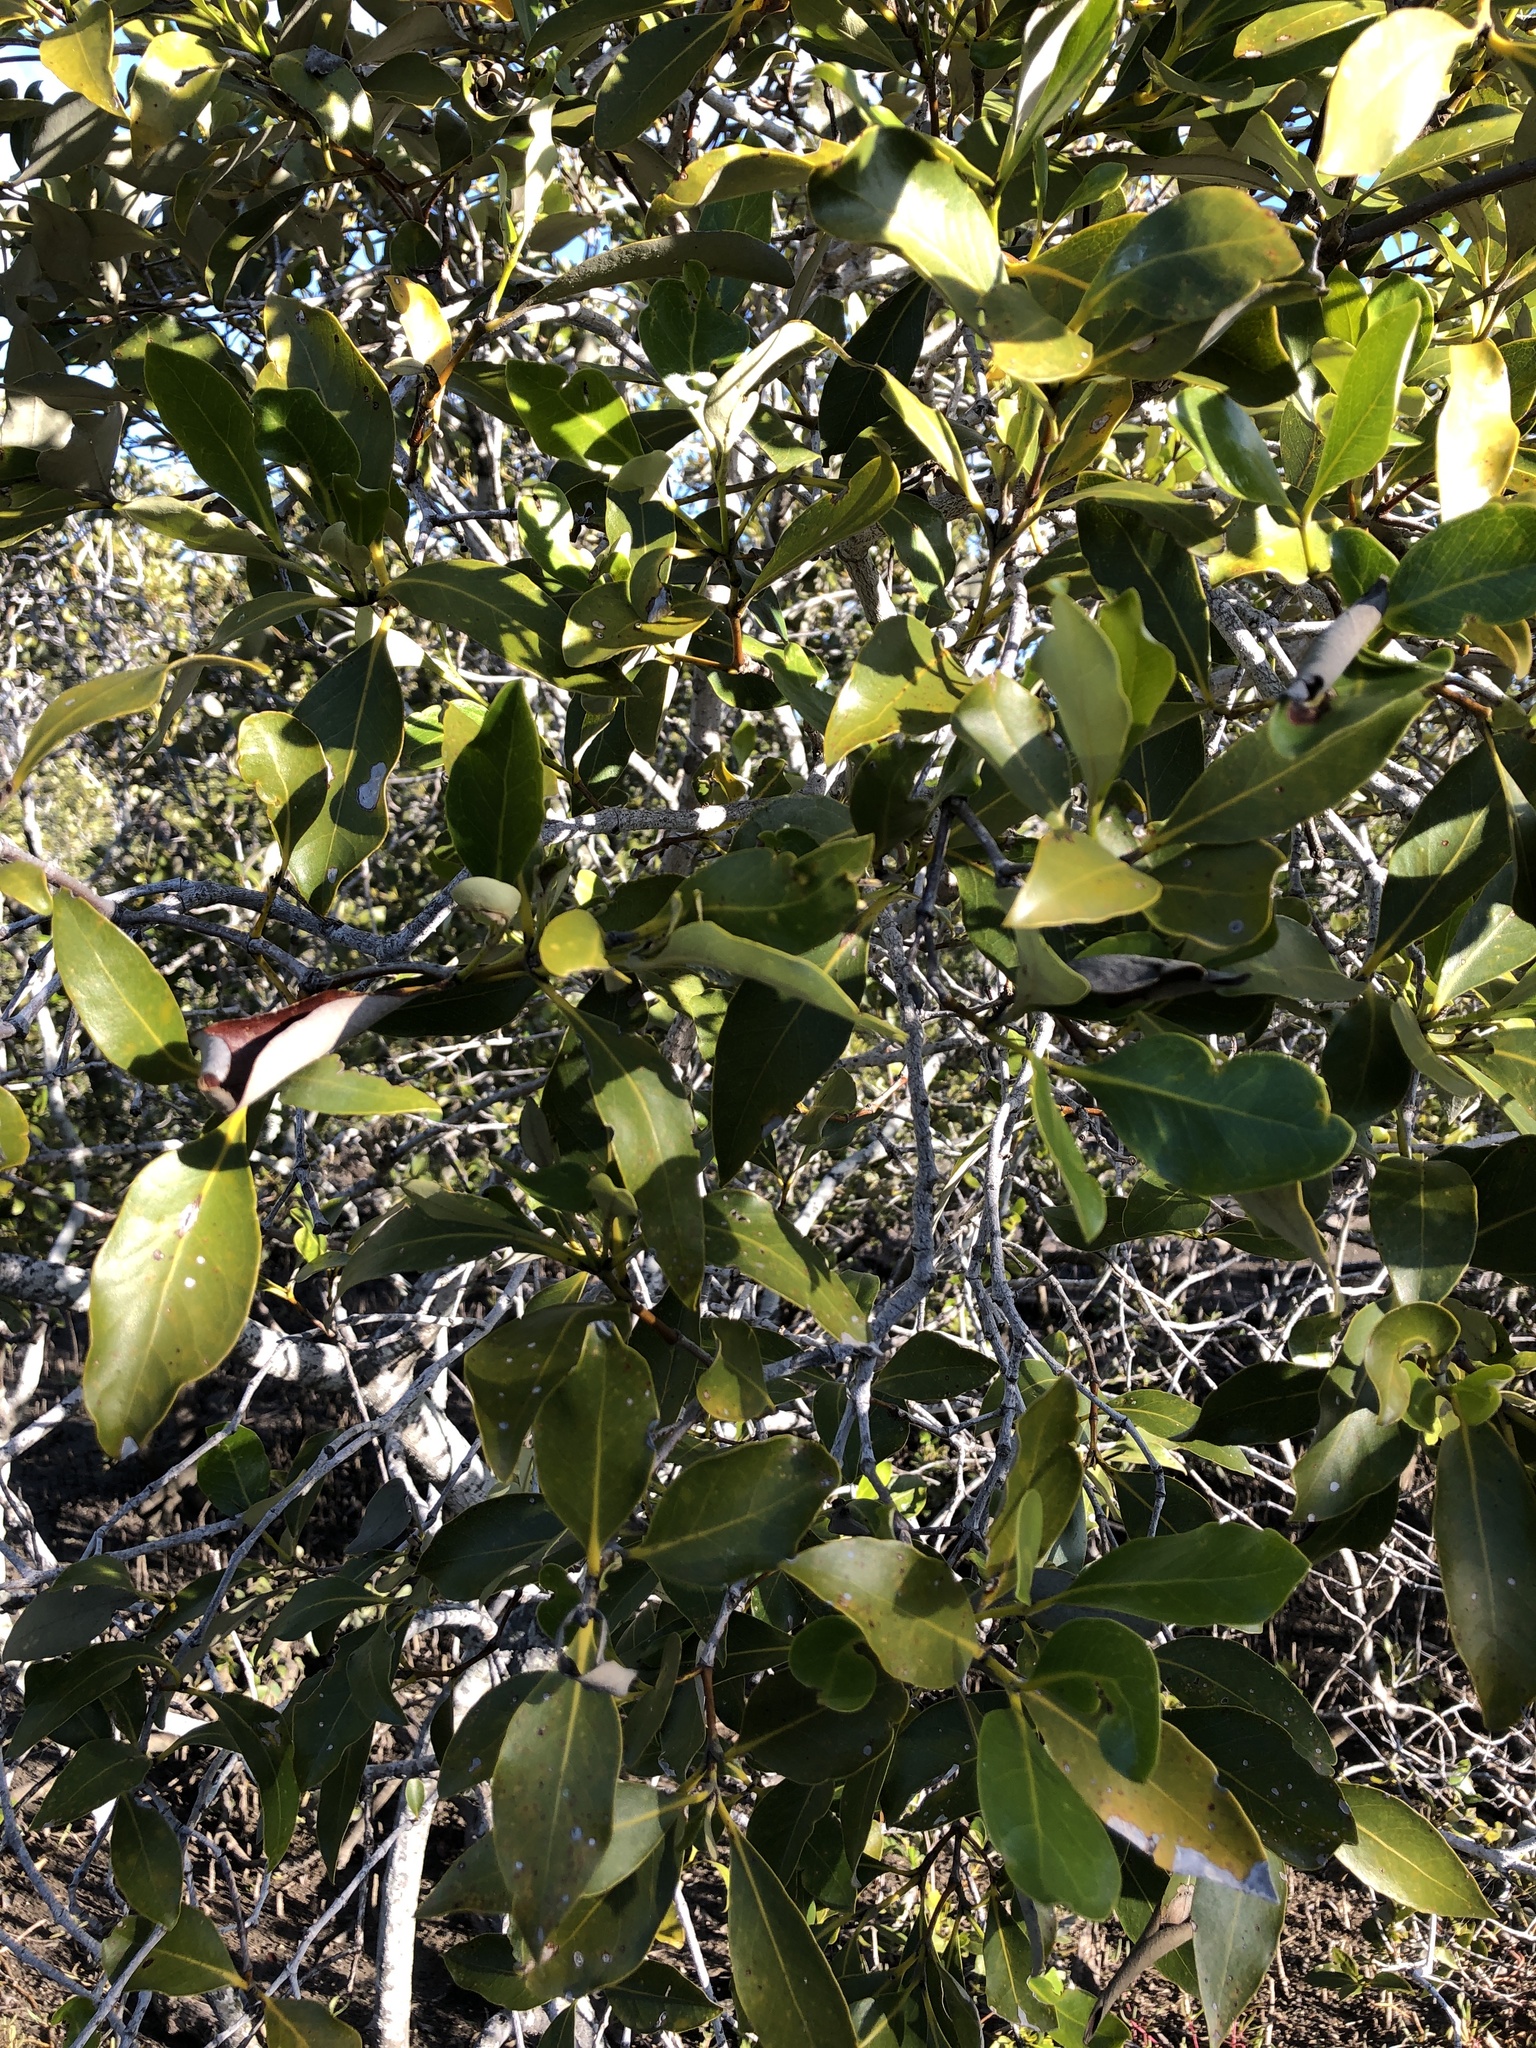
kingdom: Plantae
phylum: Tracheophyta
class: Magnoliopsida
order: Lamiales
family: Acanthaceae
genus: Avicennia
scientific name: Avicennia marina
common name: Gray mangrove
